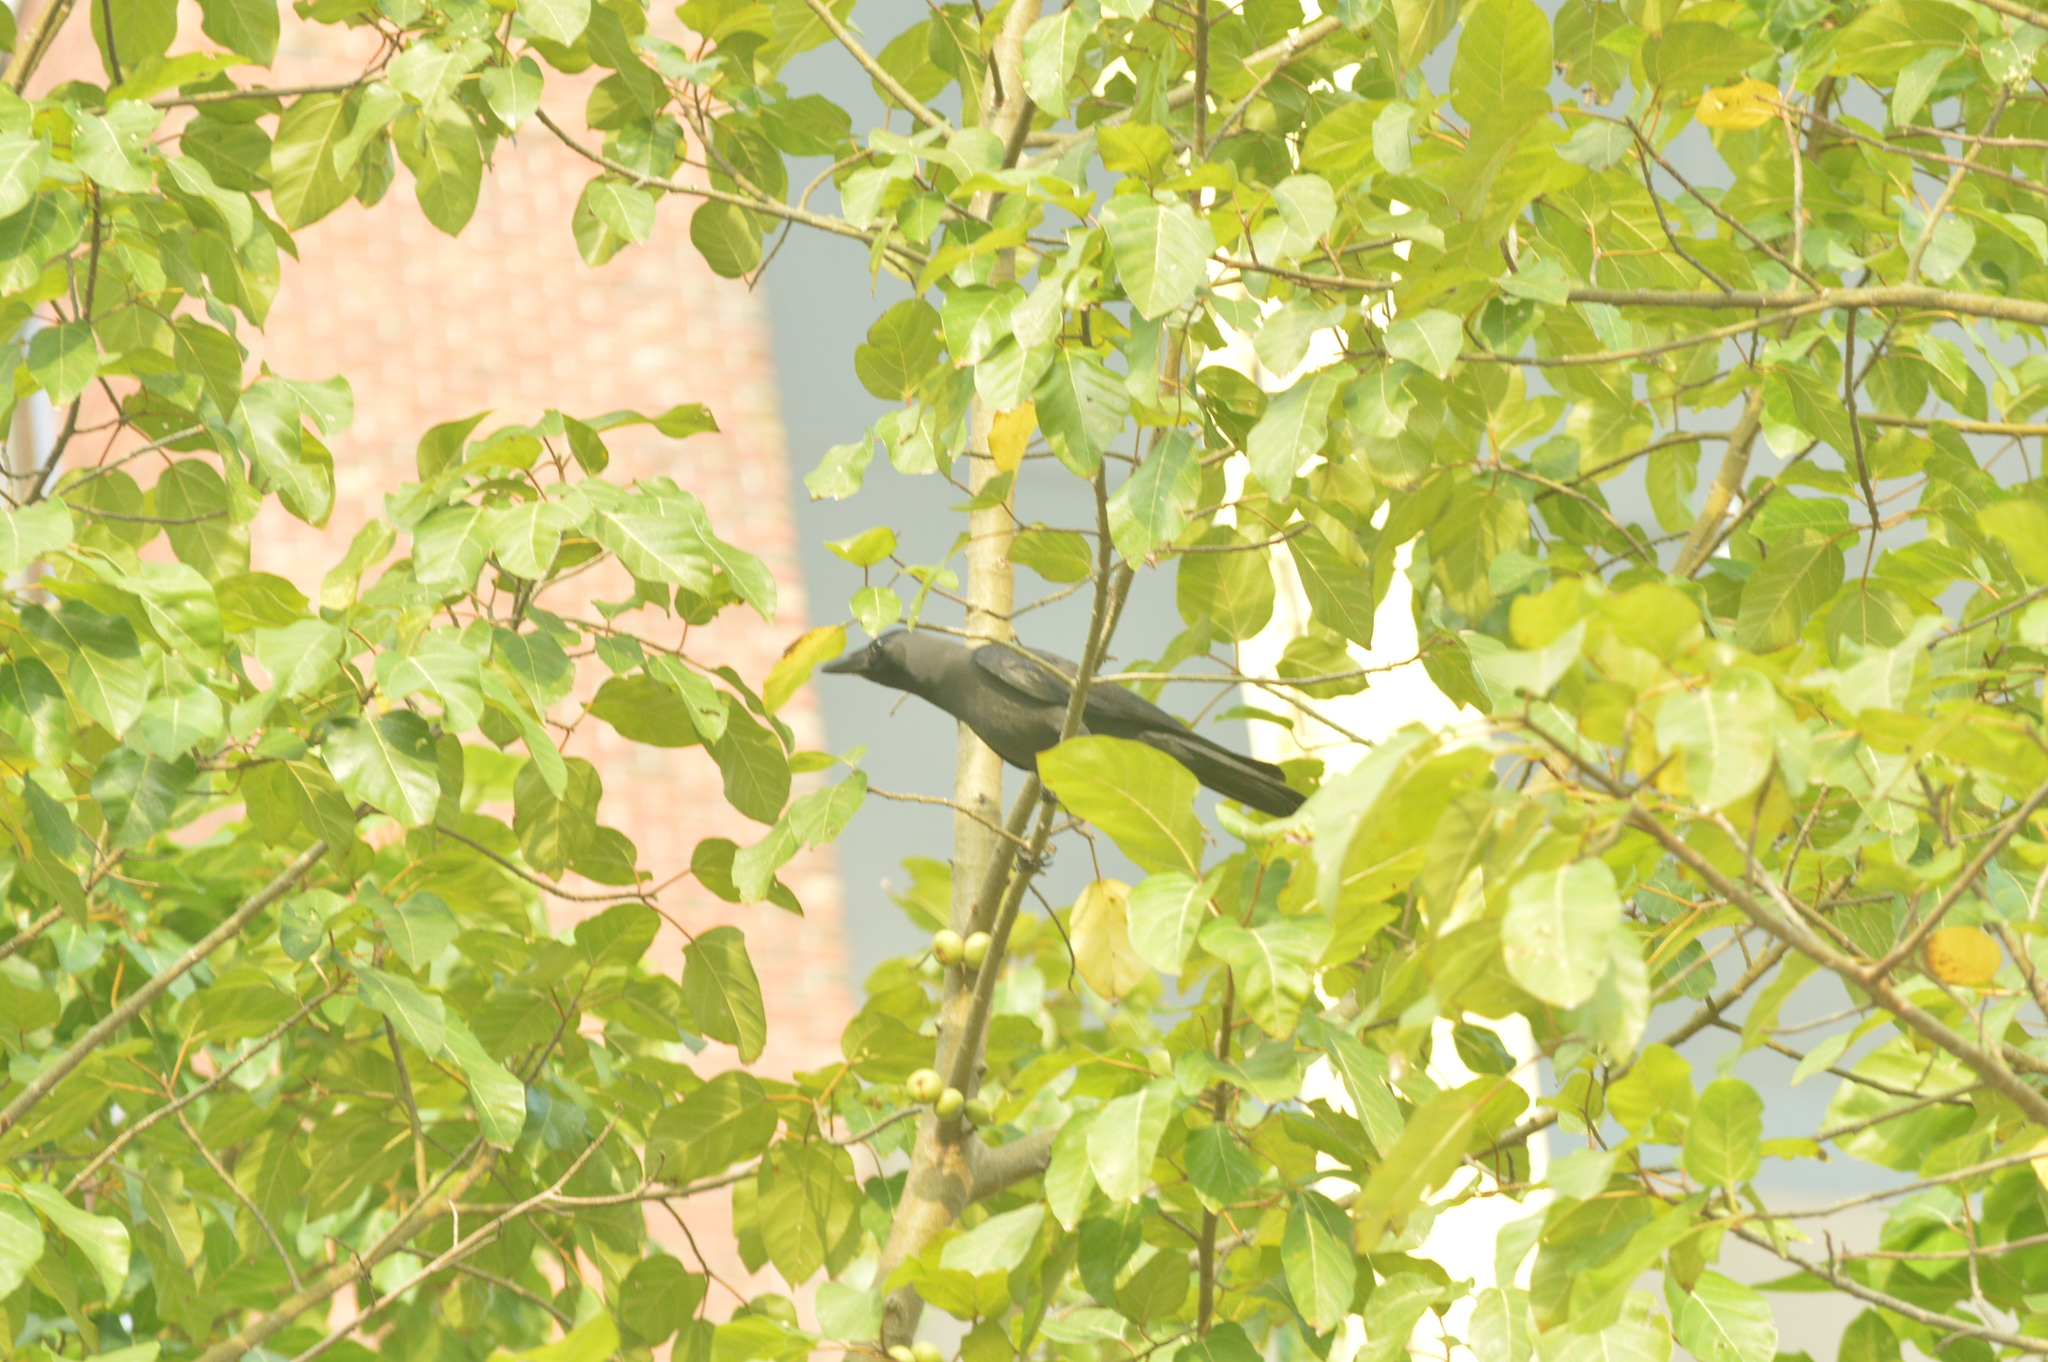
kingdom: Animalia
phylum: Chordata
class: Aves
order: Passeriformes
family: Corvidae
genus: Corvus
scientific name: Corvus splendens
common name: House crow
